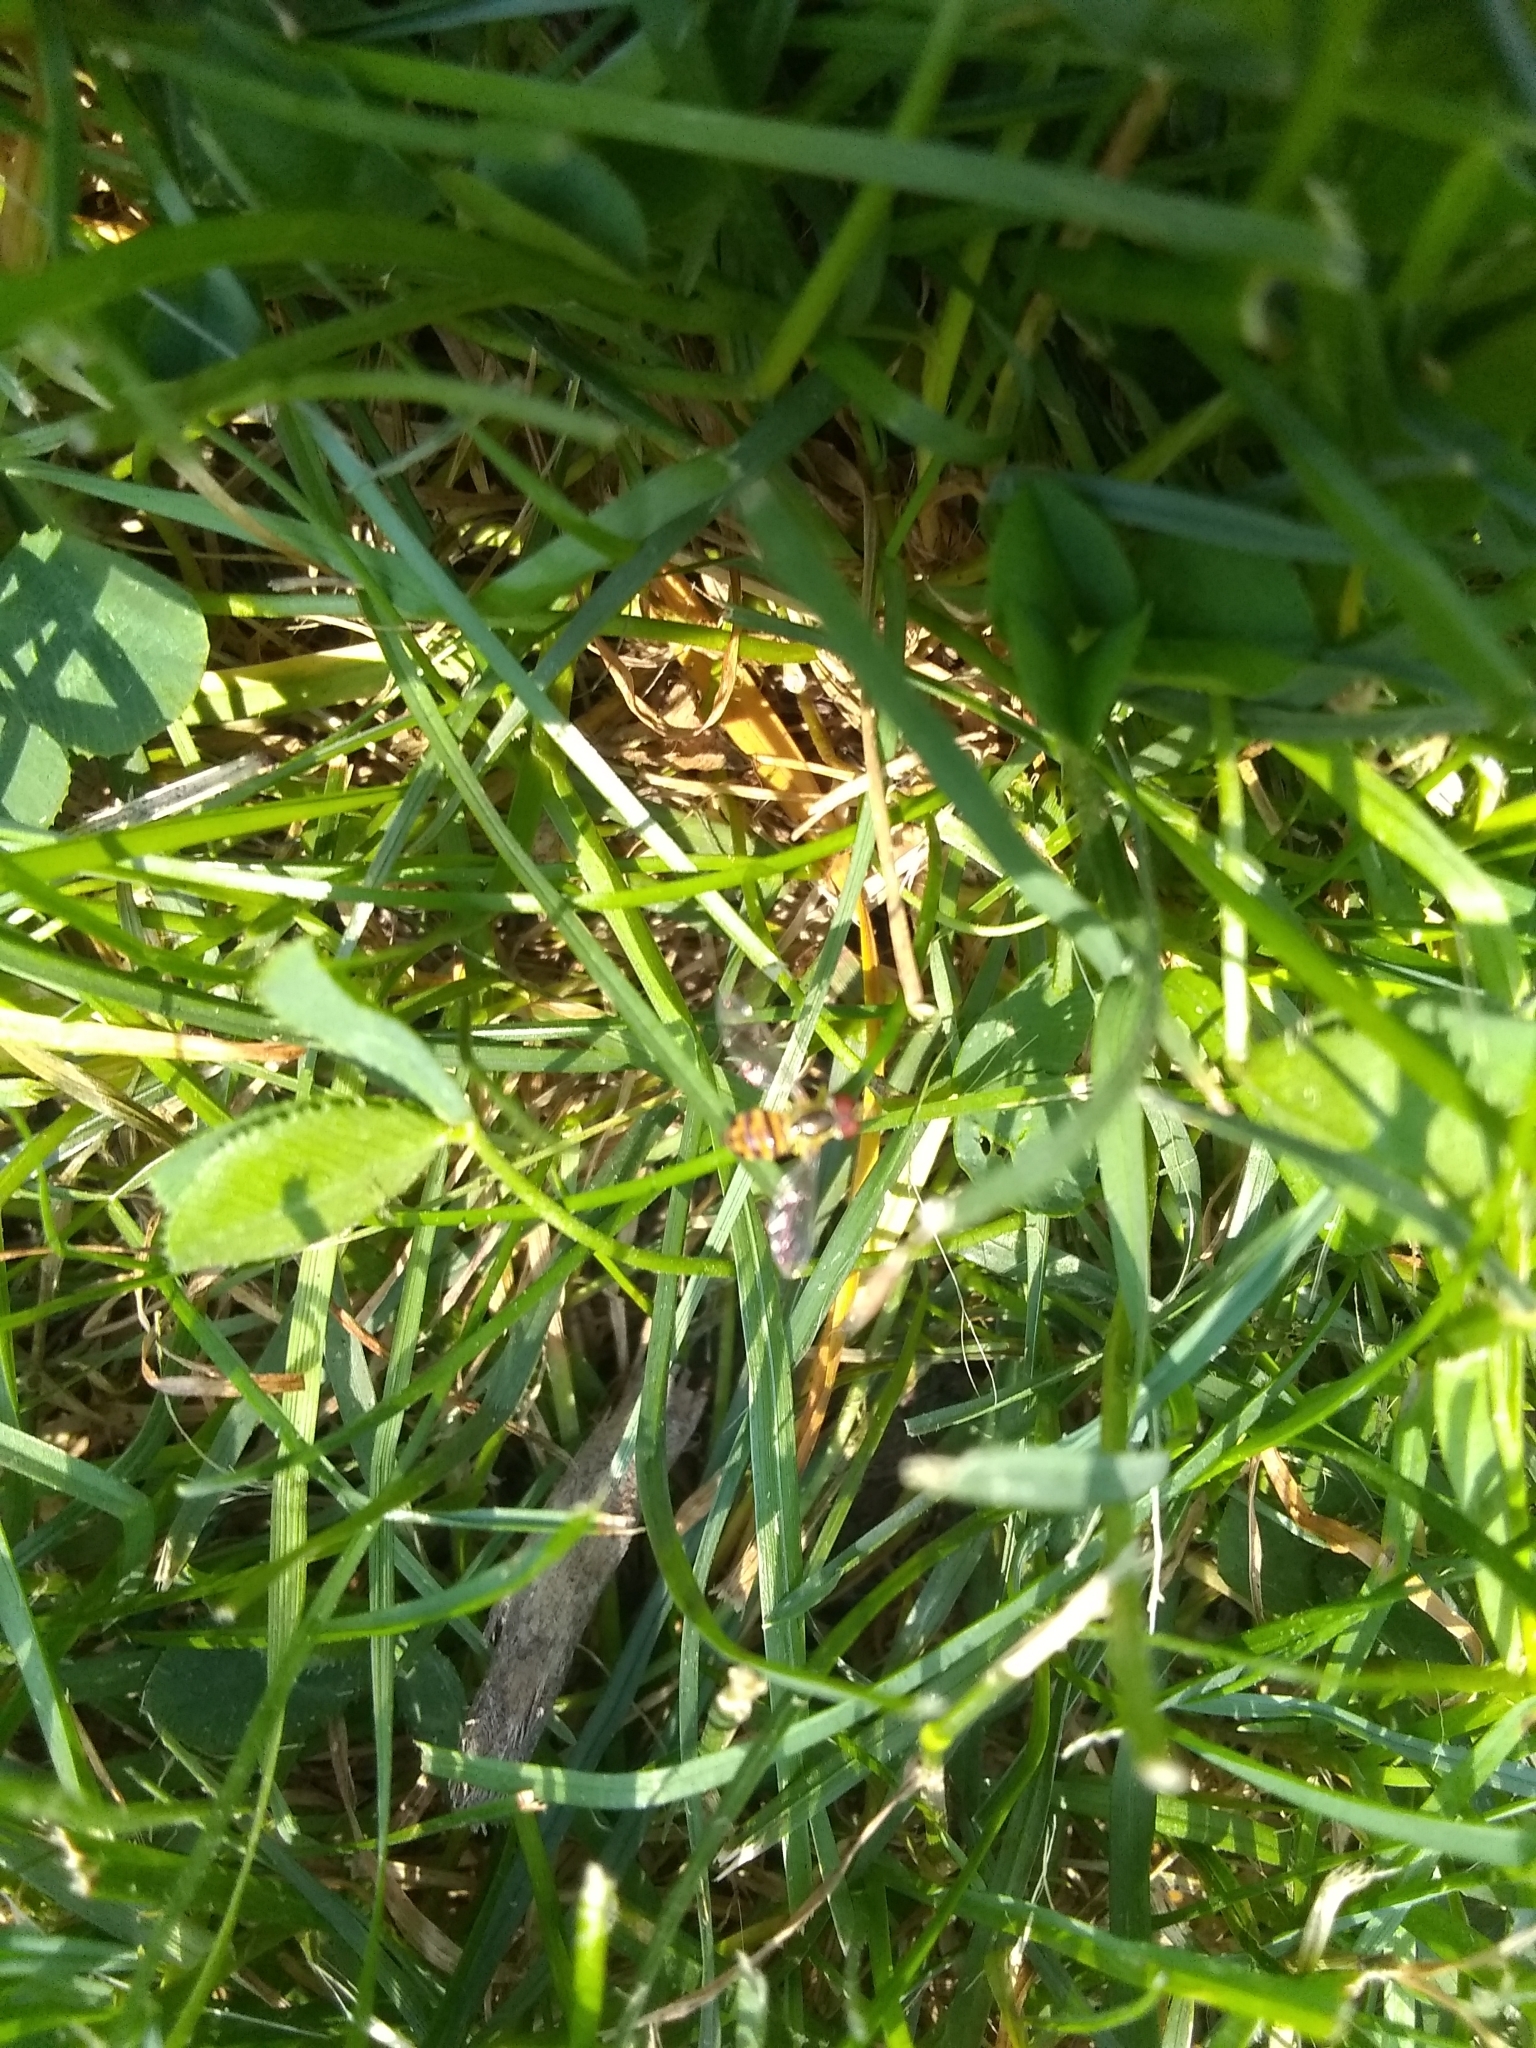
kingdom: Animalia
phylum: Arthropoda
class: Insecta
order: Diptera
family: Syrphidae
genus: Toxomerus
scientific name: Toxomerus geminatus
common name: Eastern calligrapher
